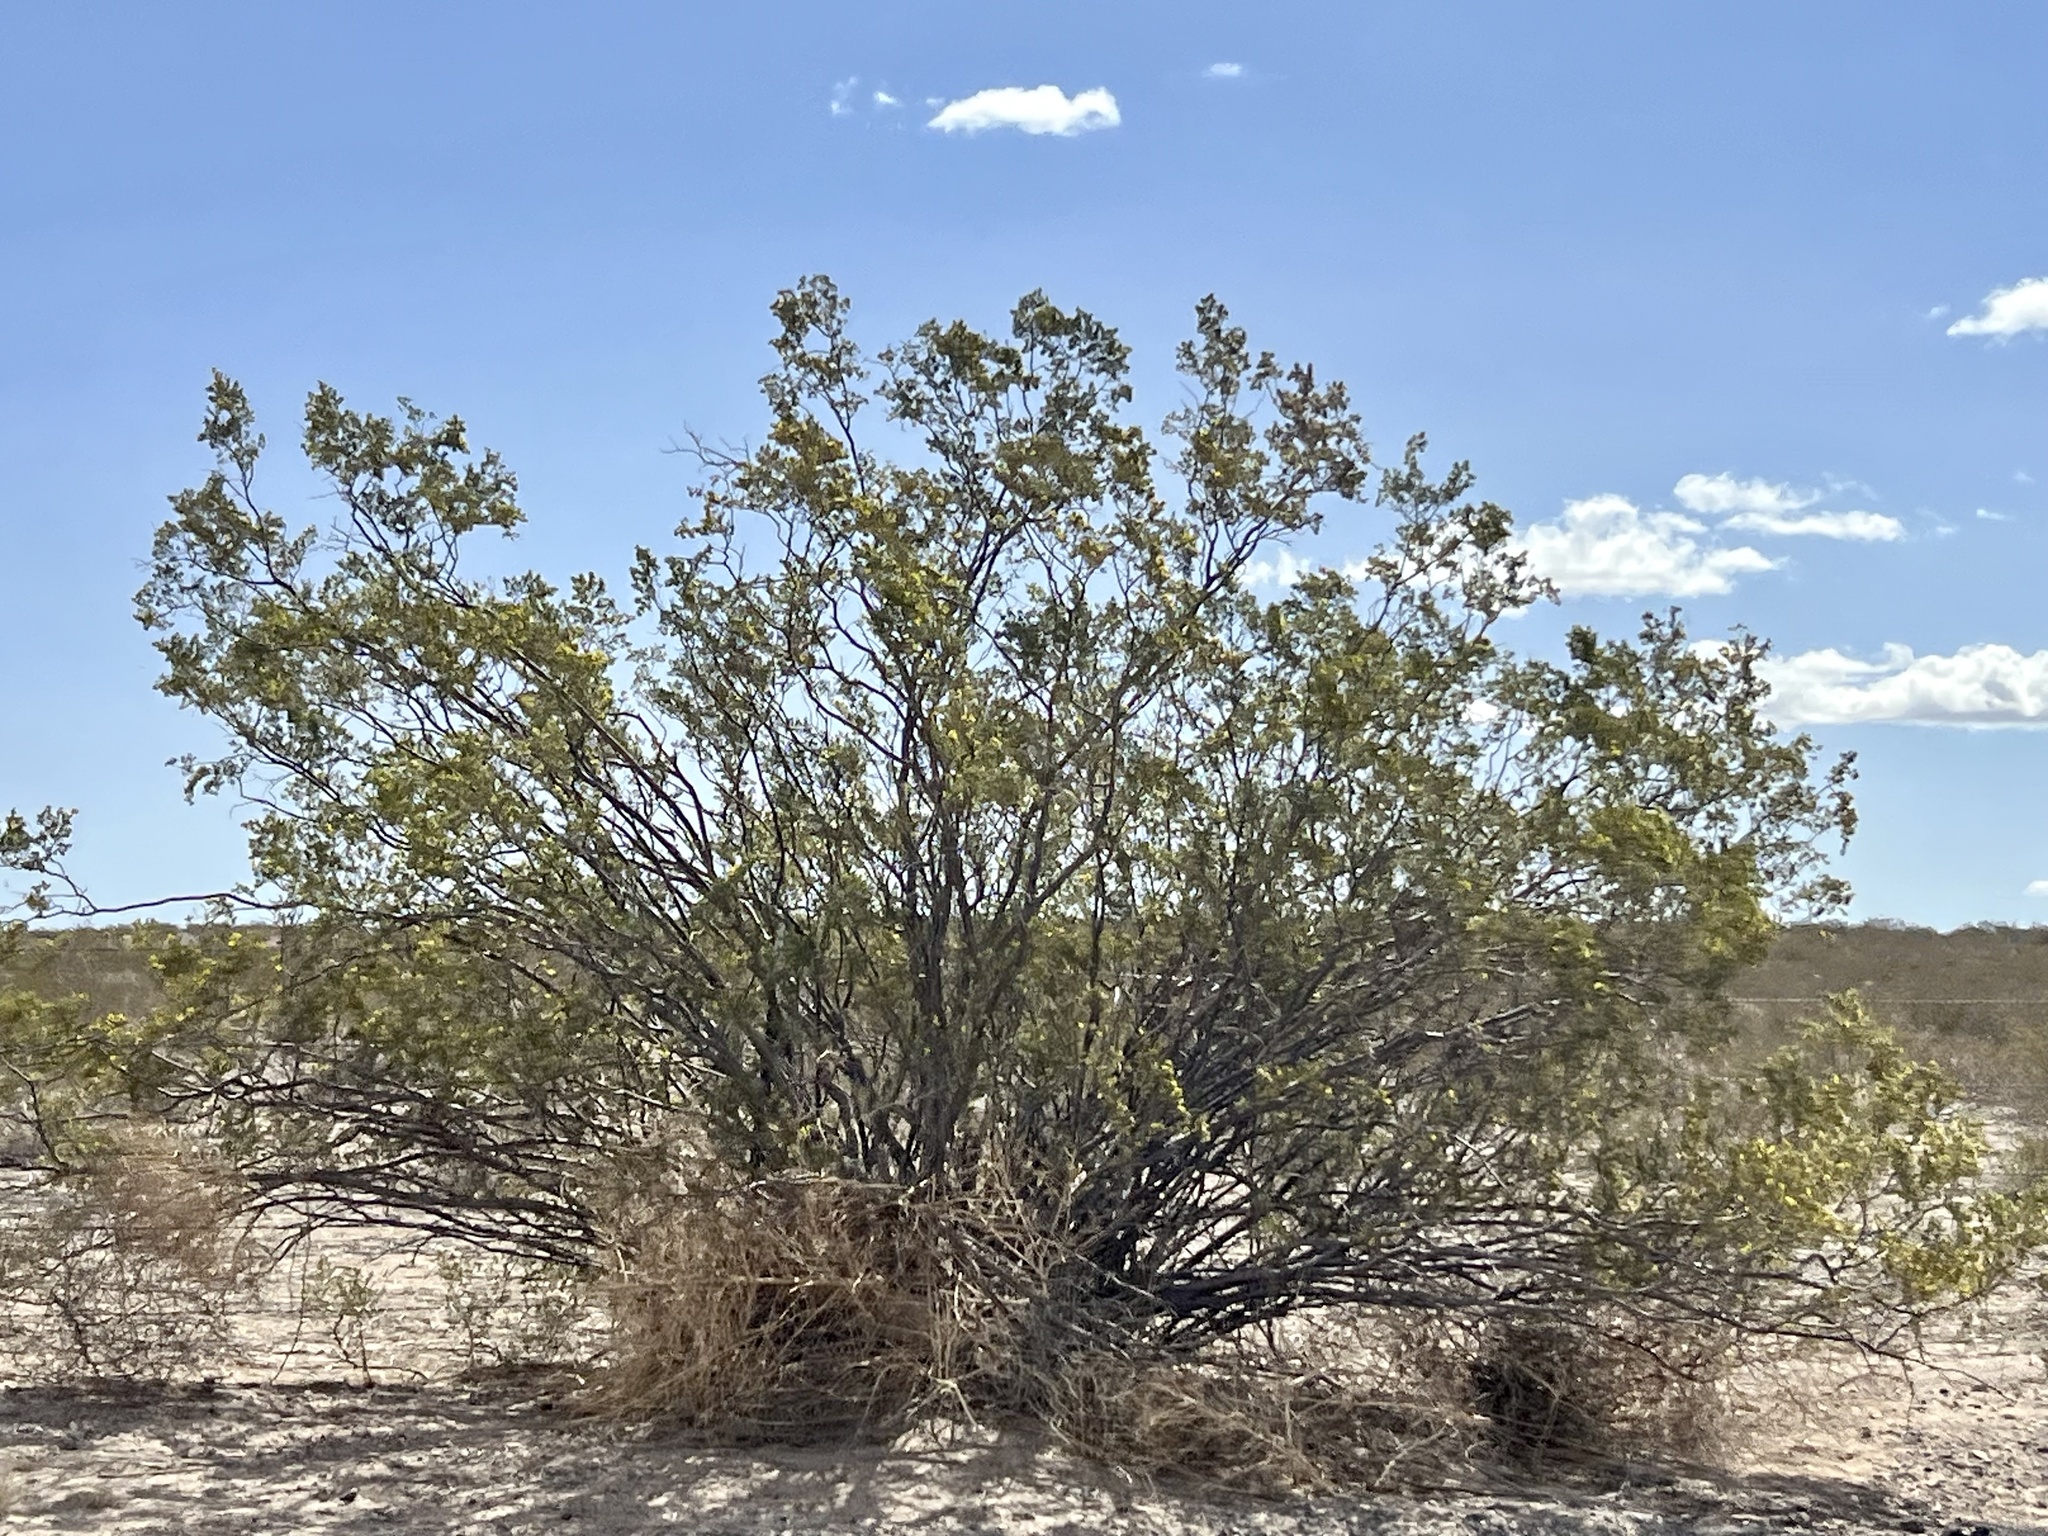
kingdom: Plantae
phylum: Tracheophyta
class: Magnoliopsida
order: Zygophyllales
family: Zygophyllaceae
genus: Larrea
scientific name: Larrea tridentata
